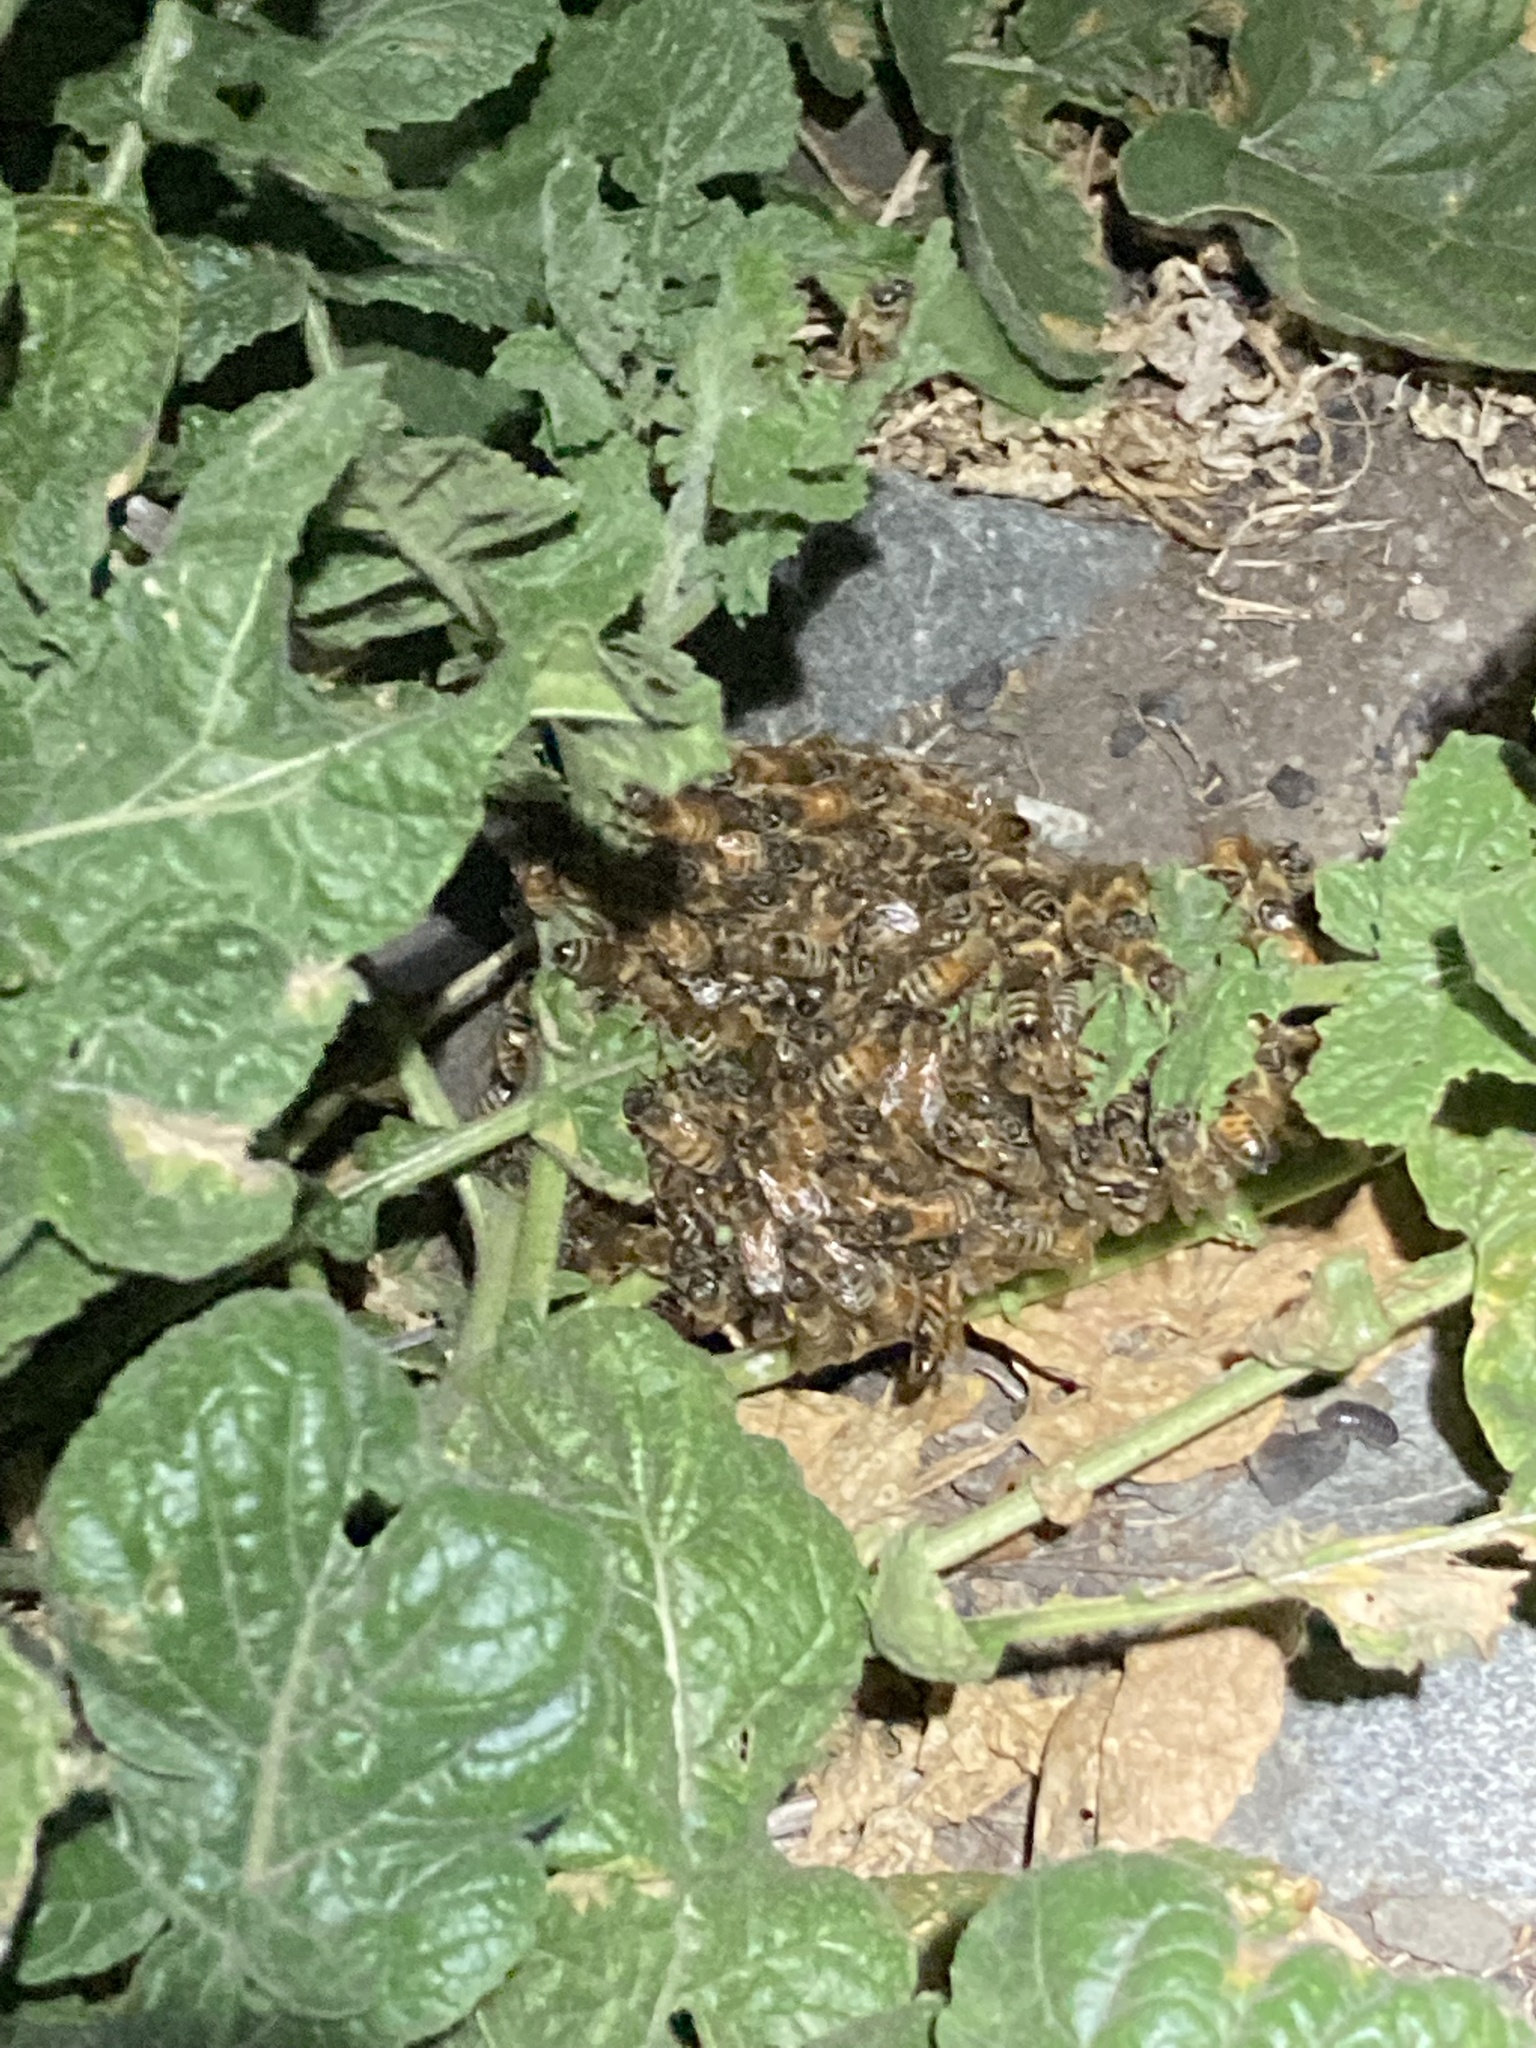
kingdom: Animalia
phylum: Arthropoda
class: Insecta
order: Hymenoptera
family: Apidae
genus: Apis
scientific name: Apis mellifera
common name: Honey bee
